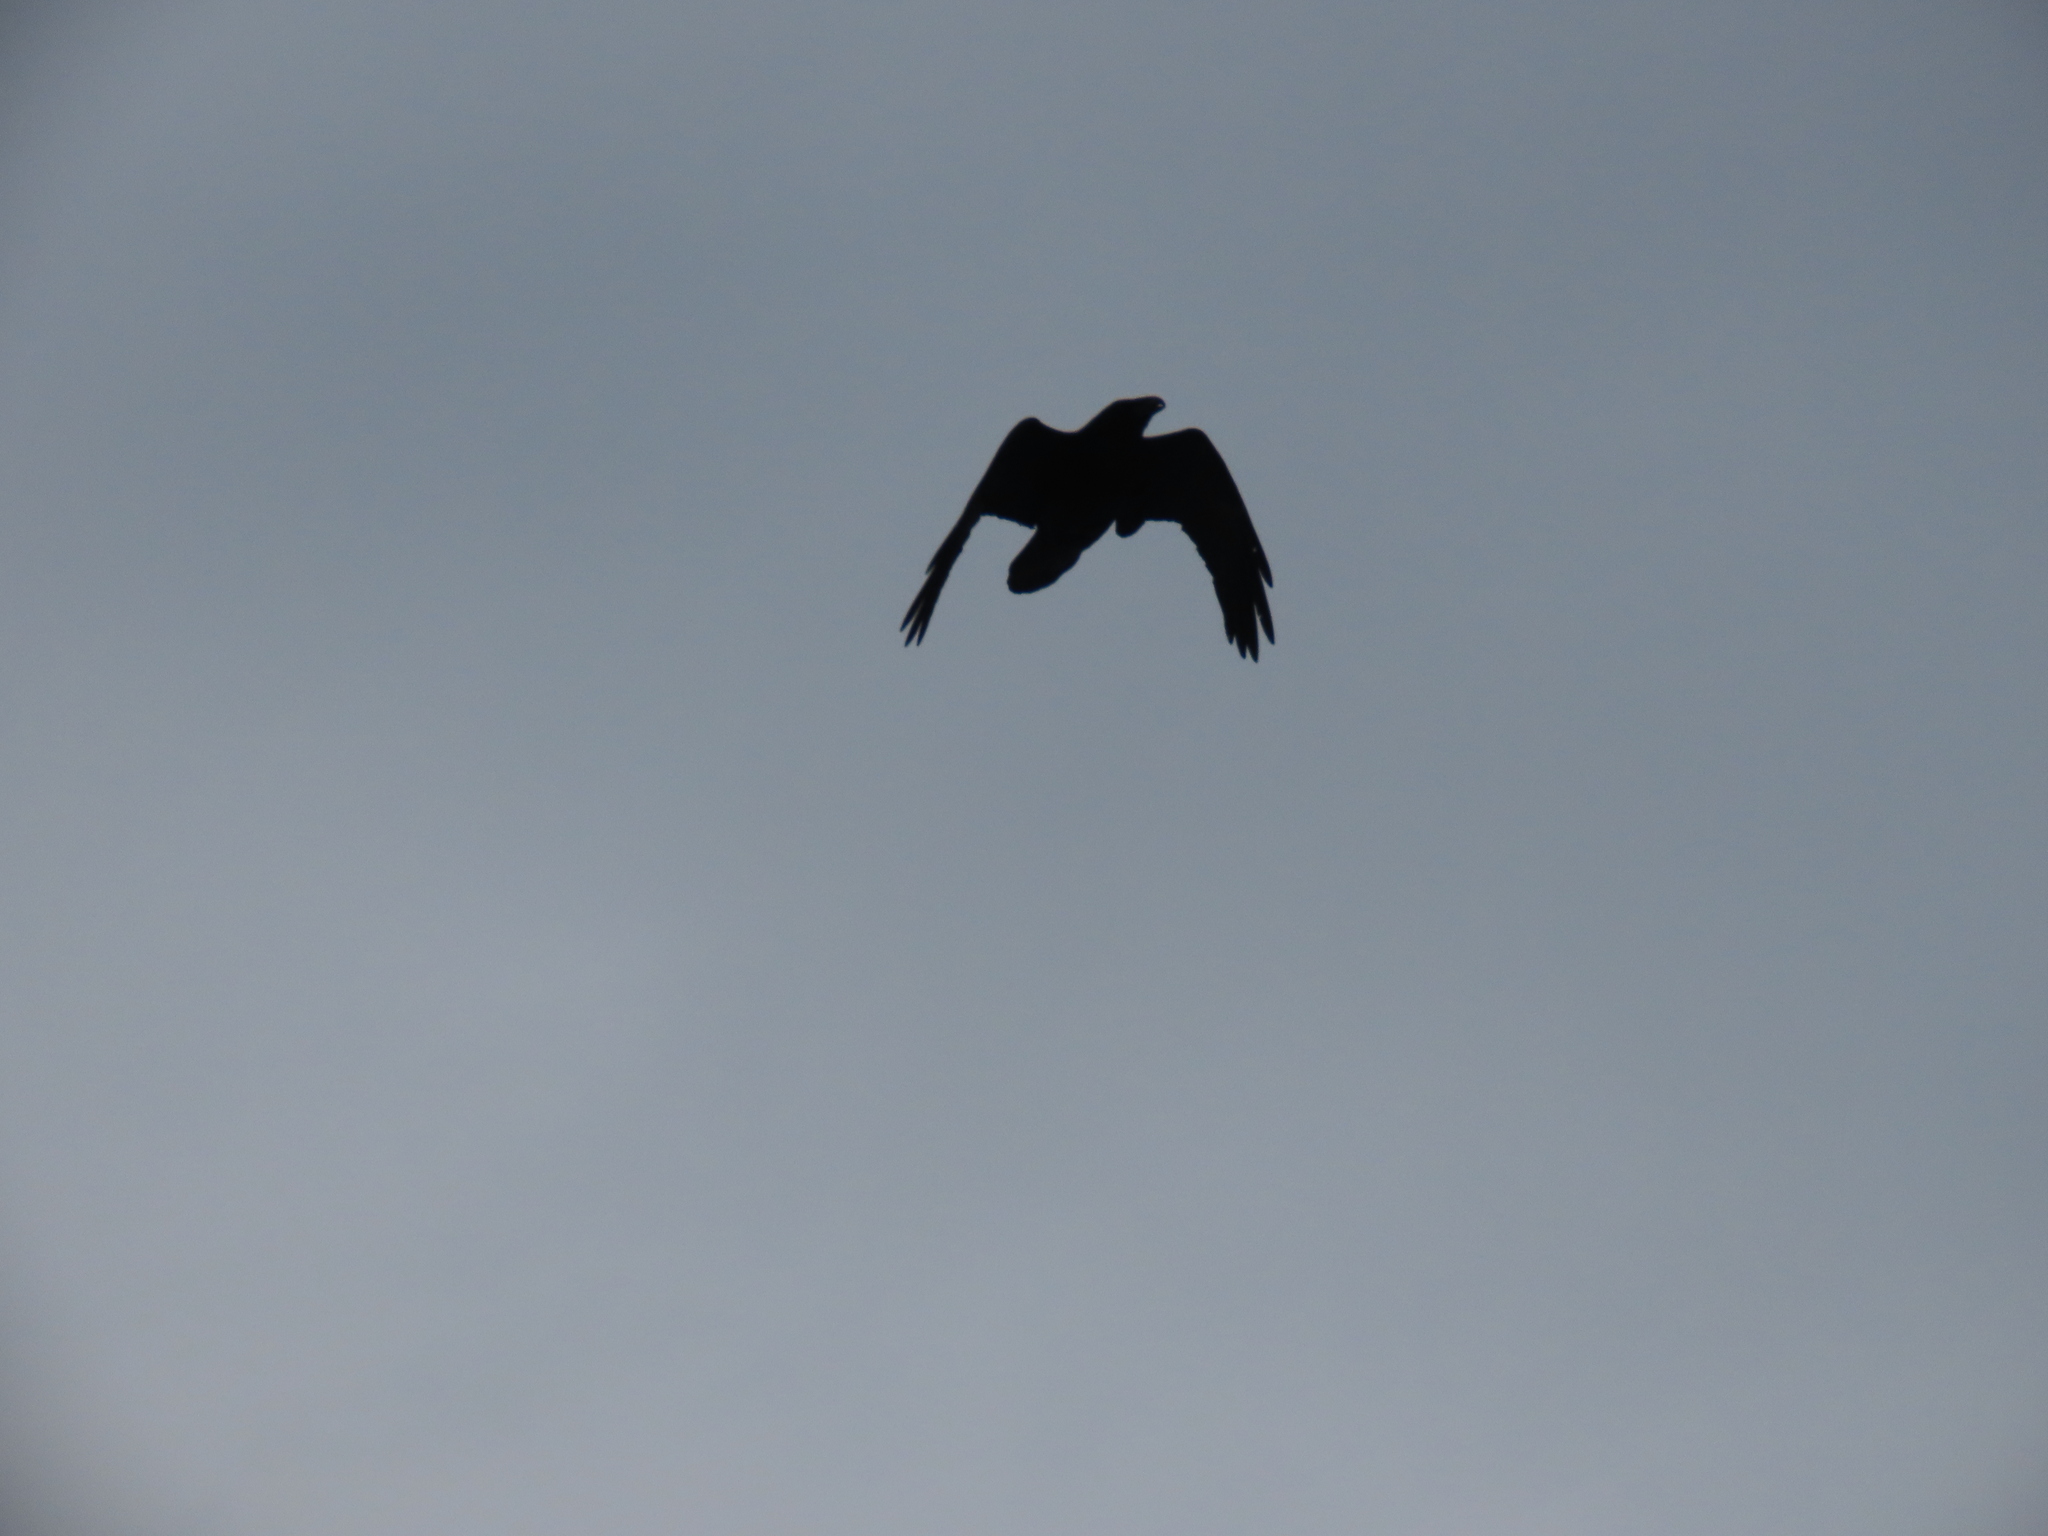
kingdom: Animalia
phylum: Chordata
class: Aves
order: Passeriformes
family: Corvidae
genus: Corvus
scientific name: Corvus corax
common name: Common raven
